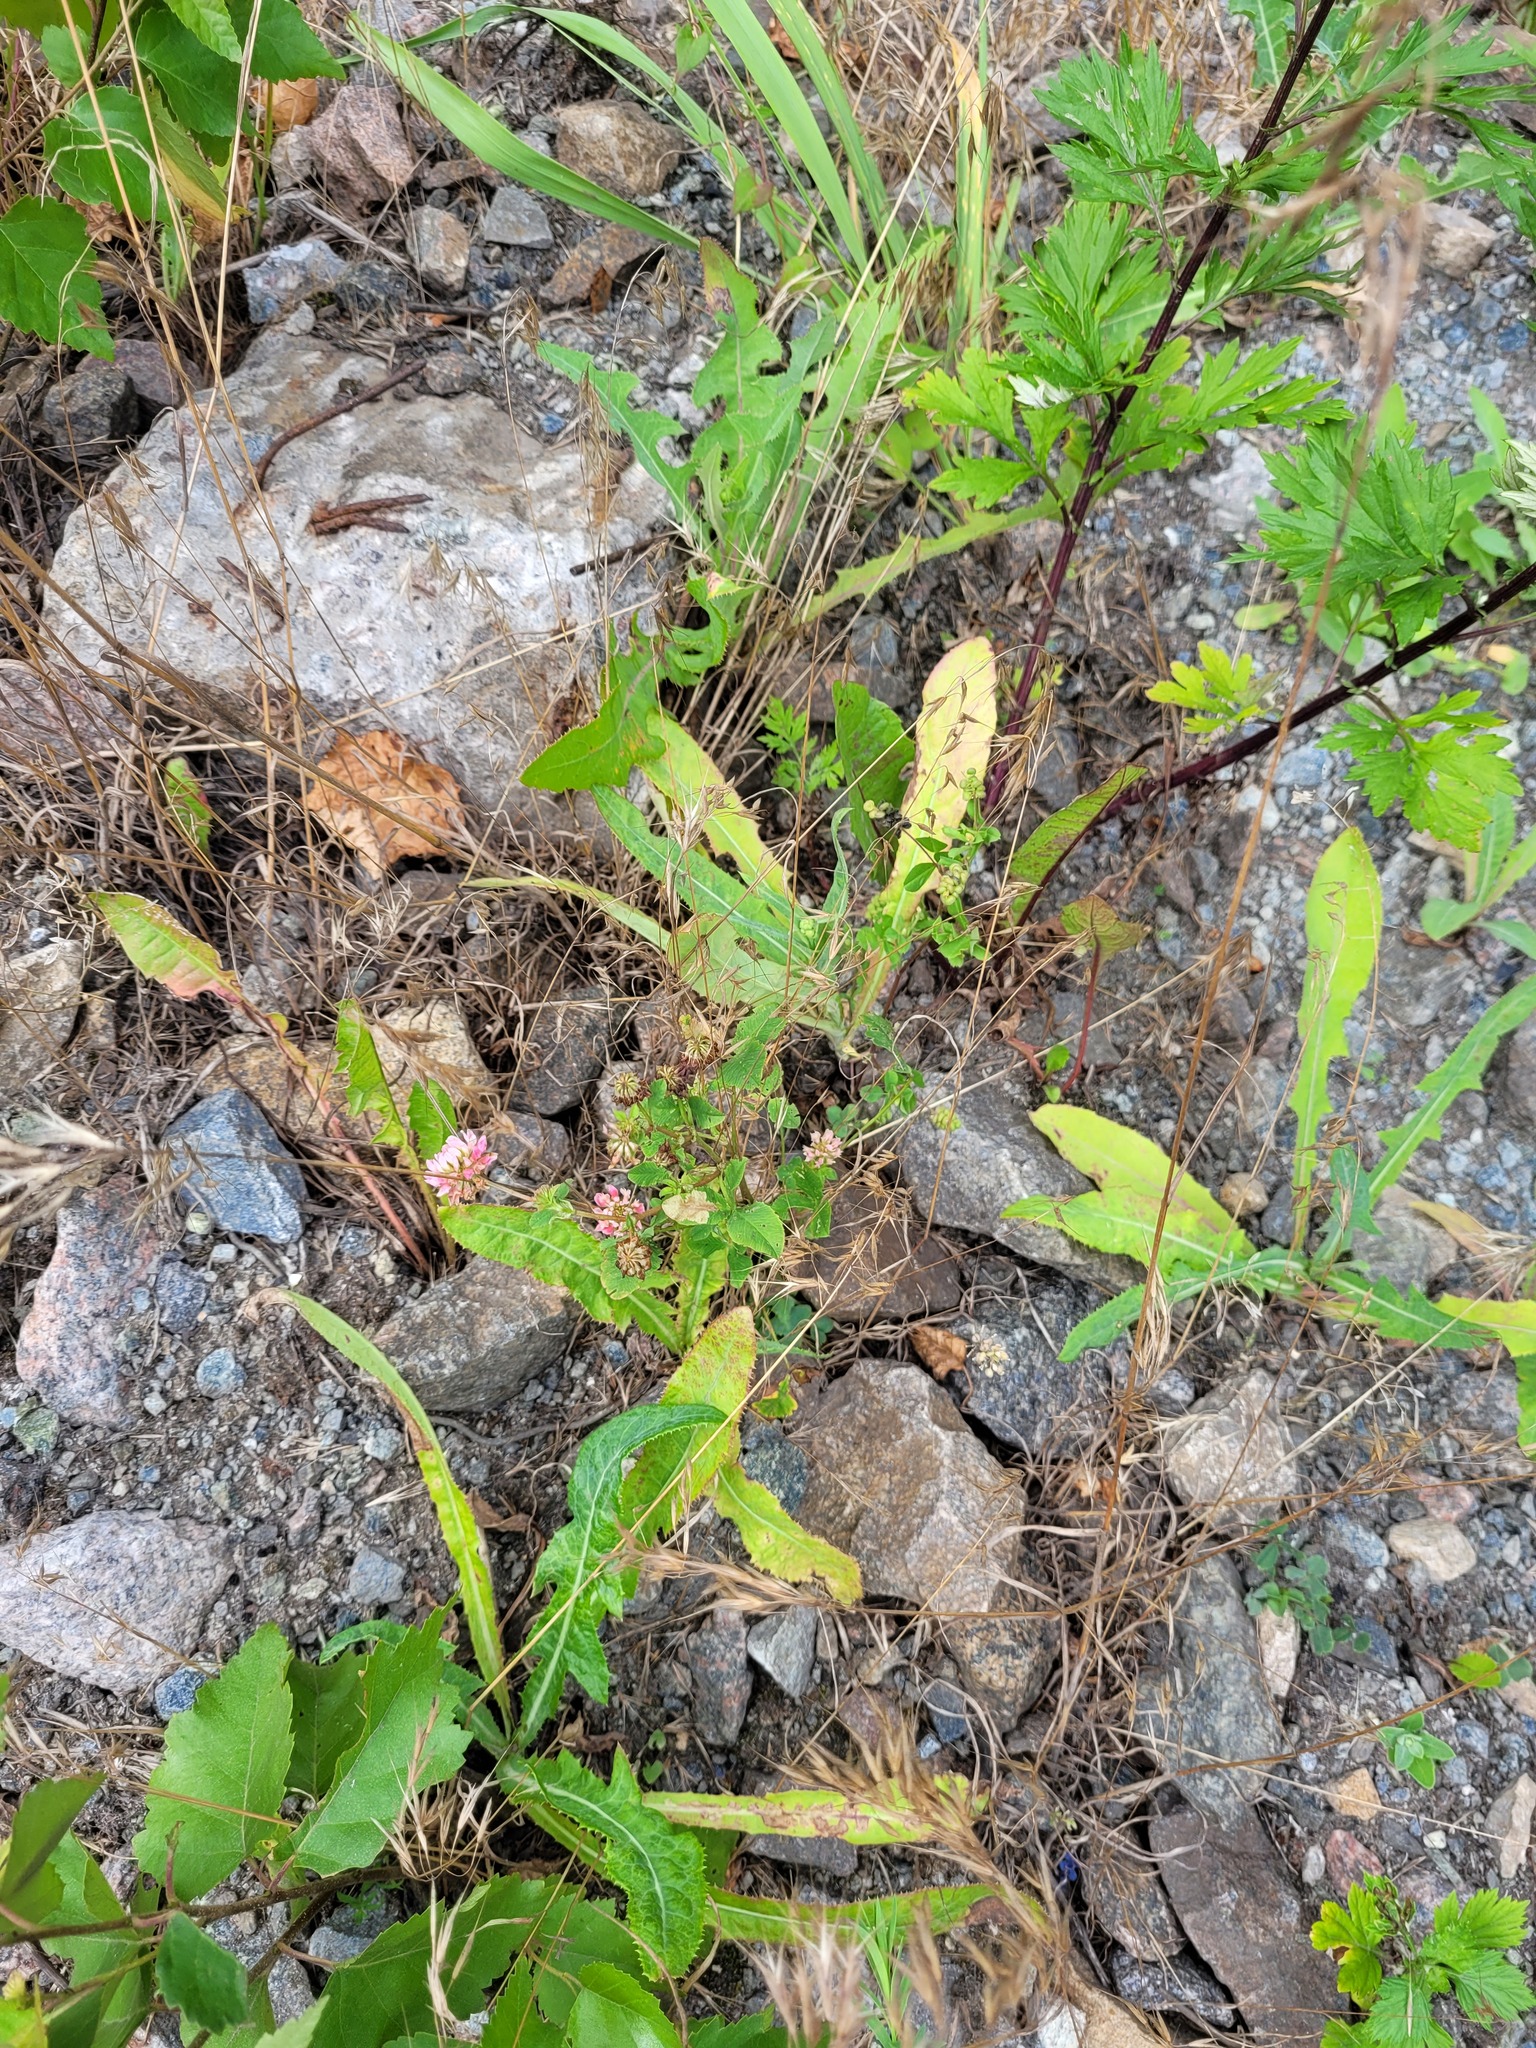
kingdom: Plantae
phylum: Tracheophyta
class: Magnoliopsida
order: Fabales
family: Fabaceae
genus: Trifolium
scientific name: Trifolium hybridum
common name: Alsike clover
